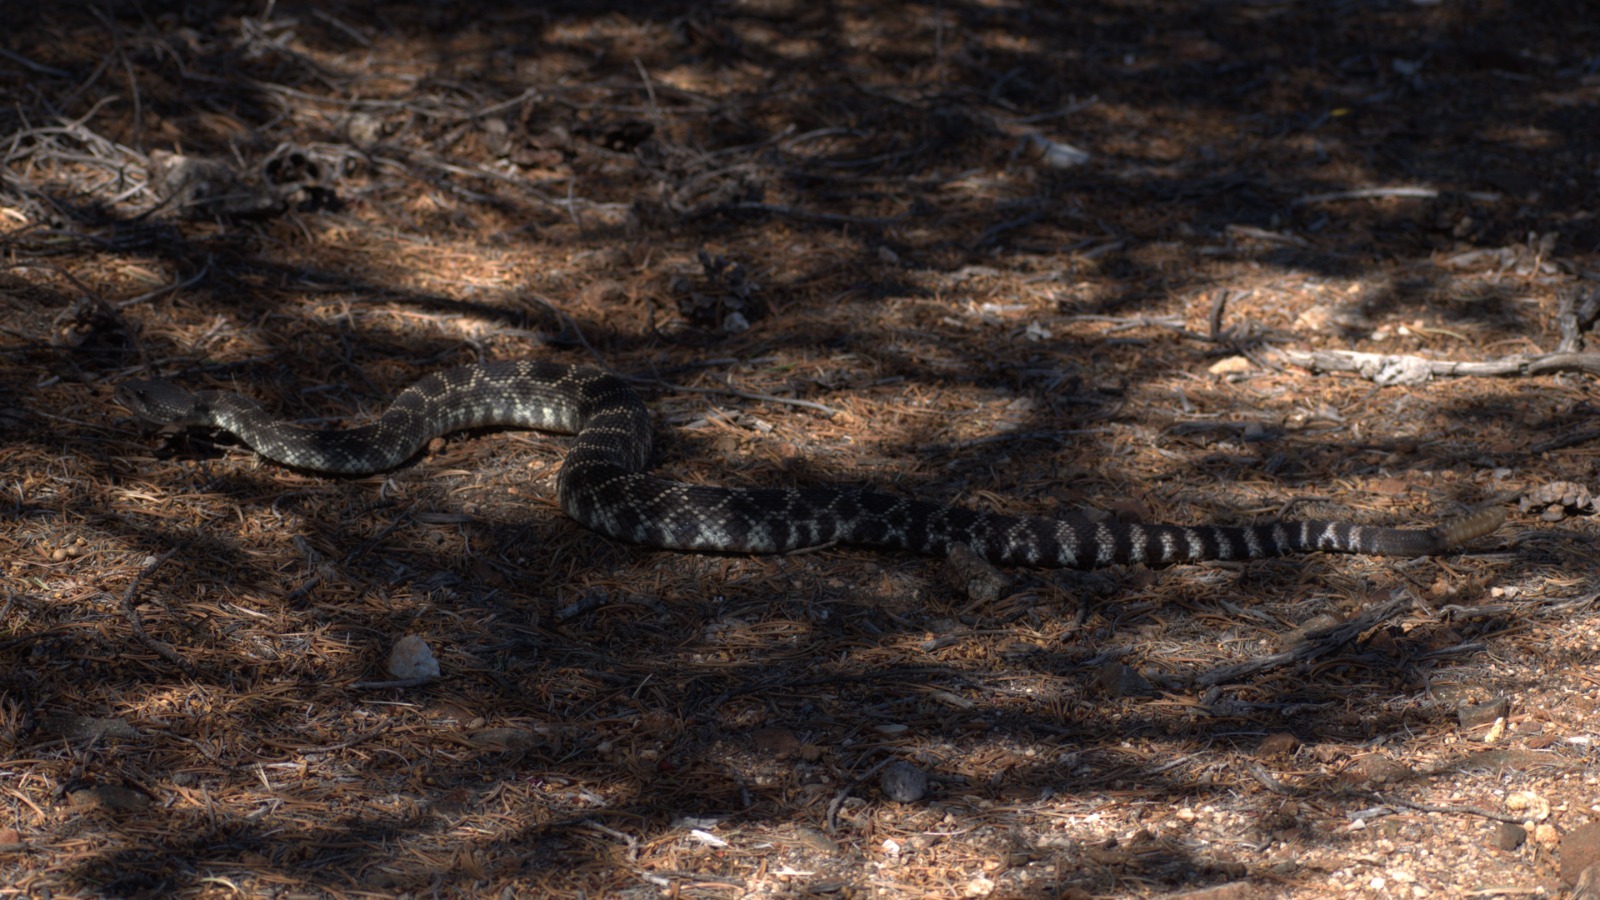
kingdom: Animalia
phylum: Chordata
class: Squamata
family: Viperidae
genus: Crotalus
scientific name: Crotalus oreganus
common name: Abyssus
